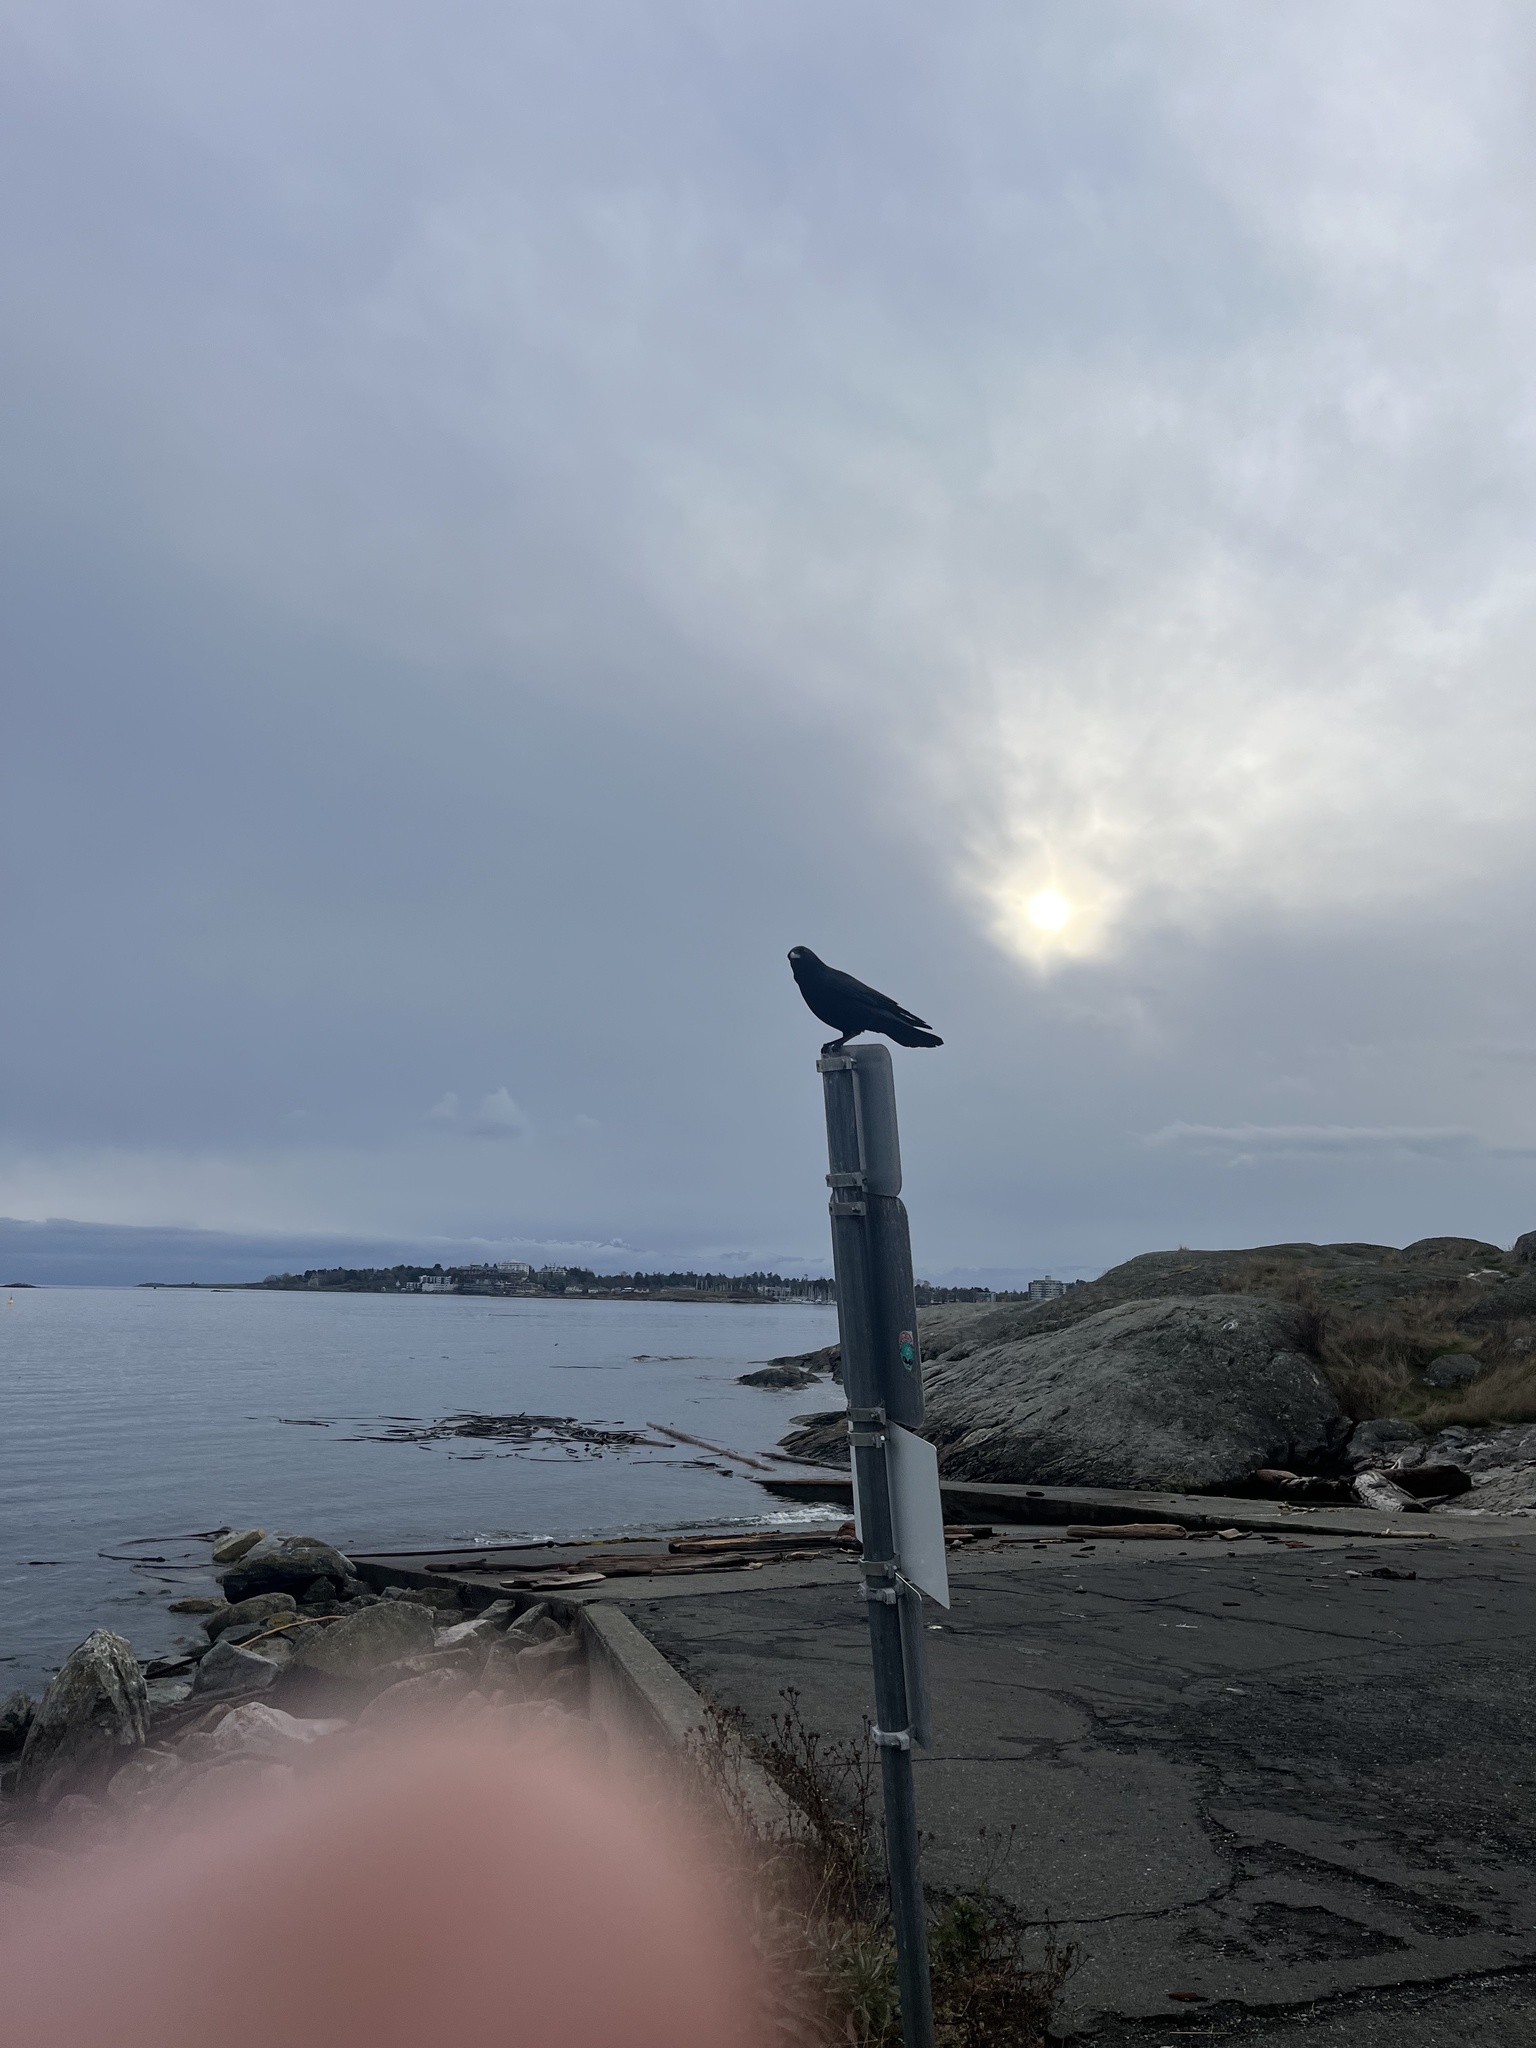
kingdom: Animalia
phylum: Chordata
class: Aves
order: Passeriformes
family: Corvidae
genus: Corvus
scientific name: Corvus brachyrhynchos
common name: American crow
